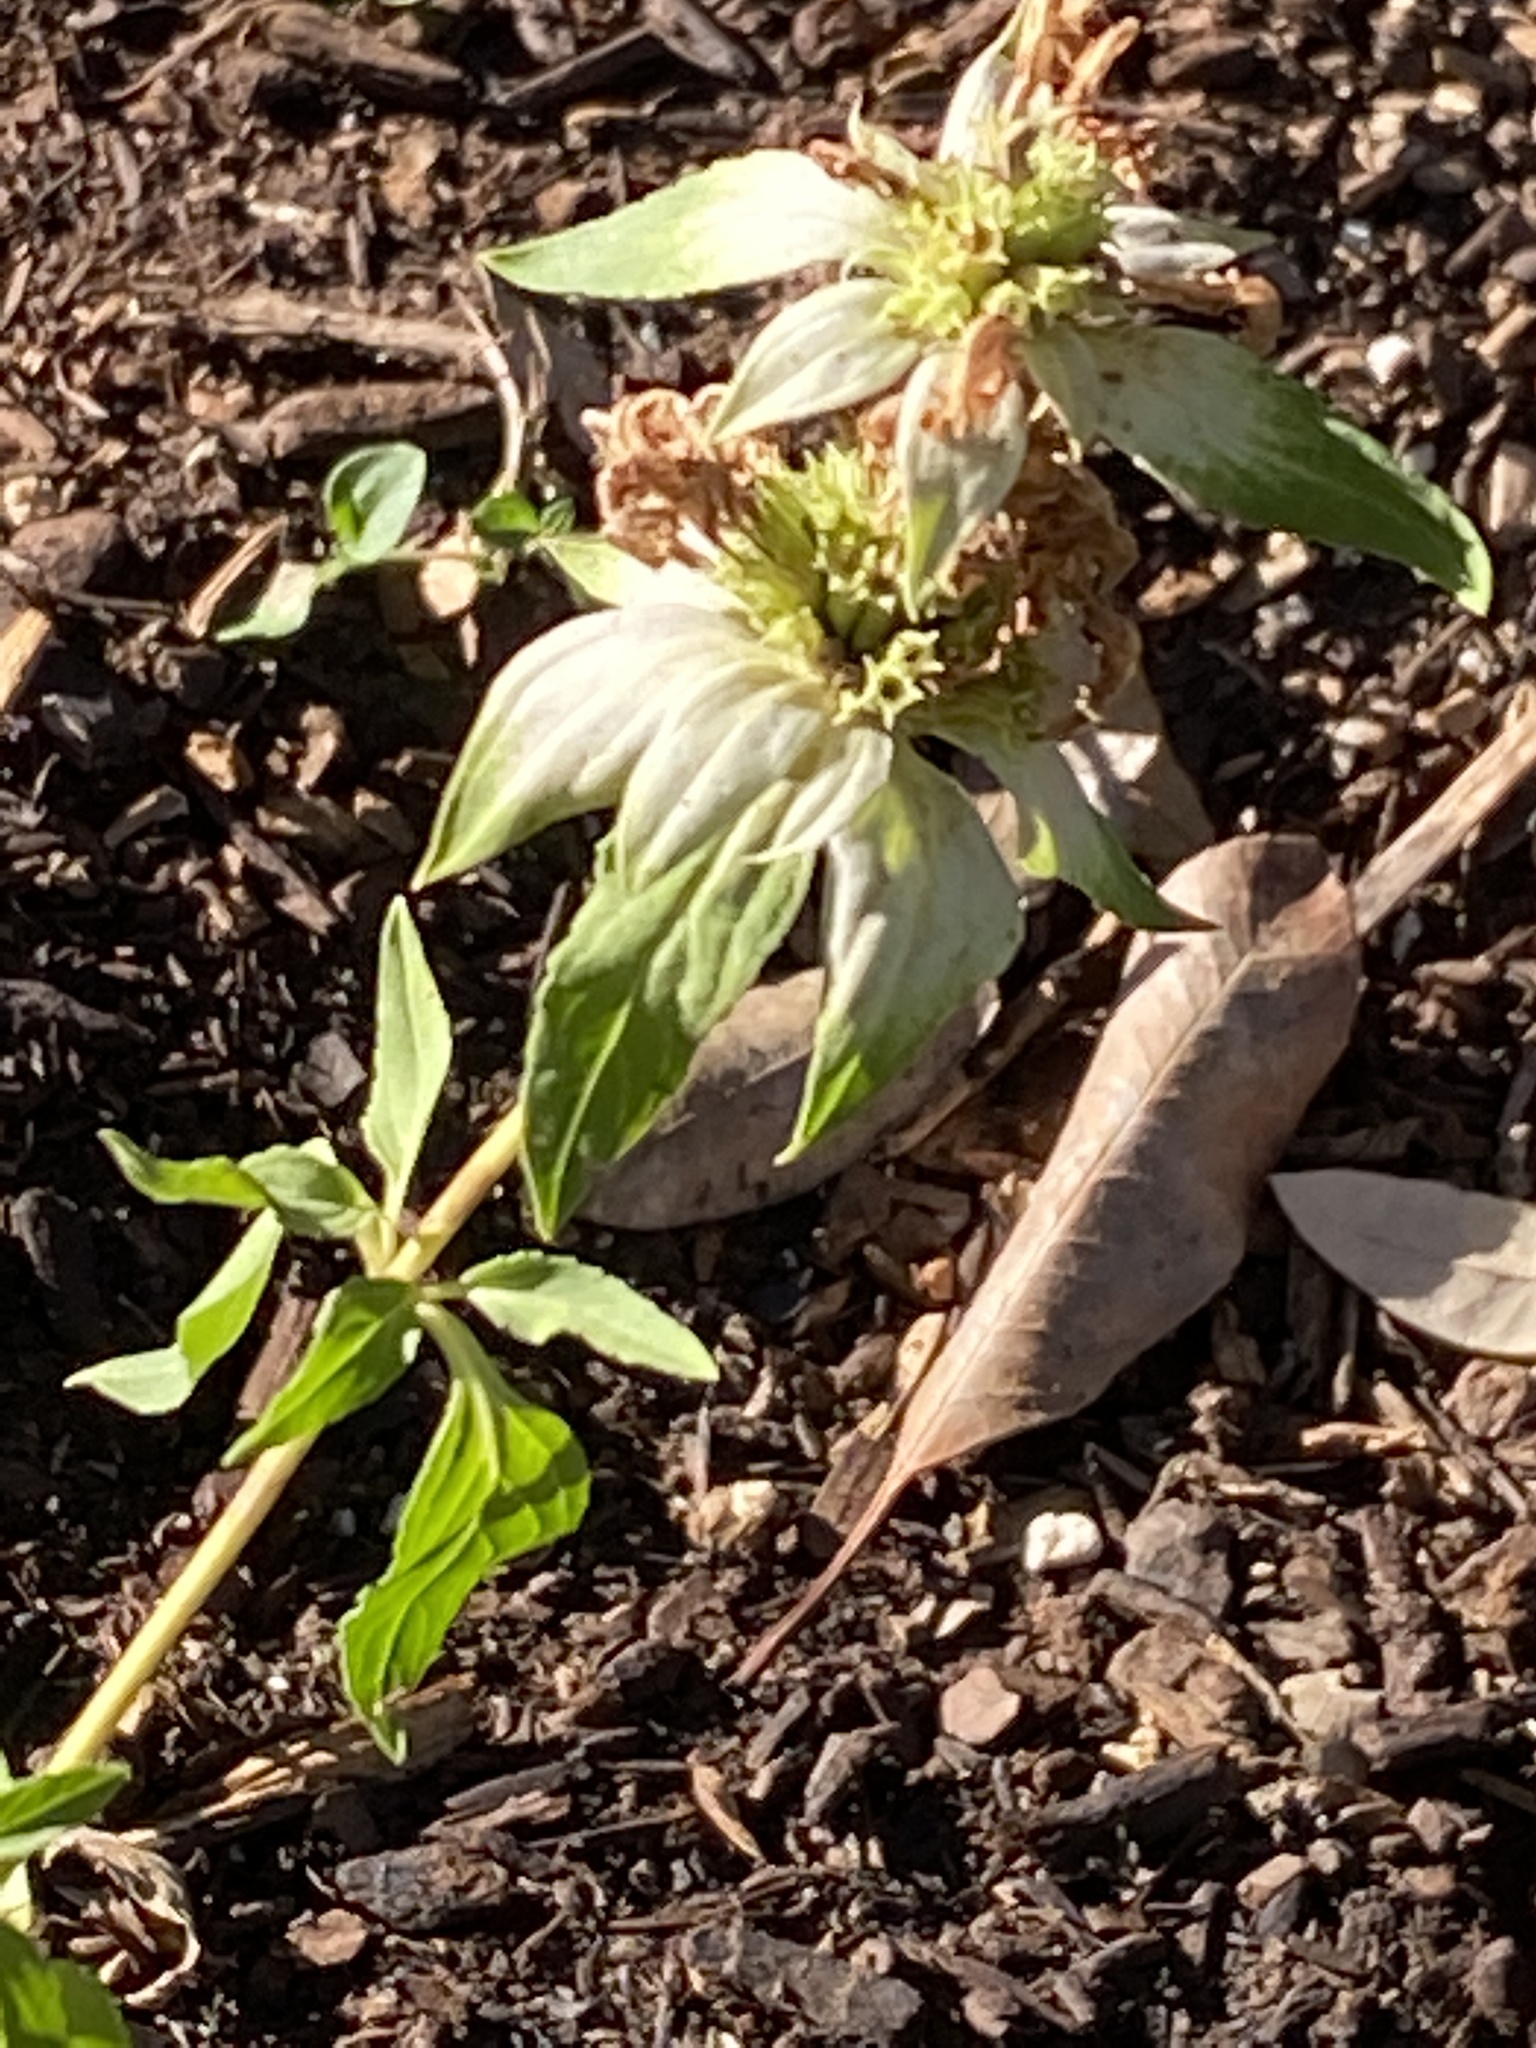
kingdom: Plantae
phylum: Tracheophyta
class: Magnoliopsida
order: Lamiales
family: Lamiaceae
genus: Monarda
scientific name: Monarda punctata
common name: Dotted monarda
